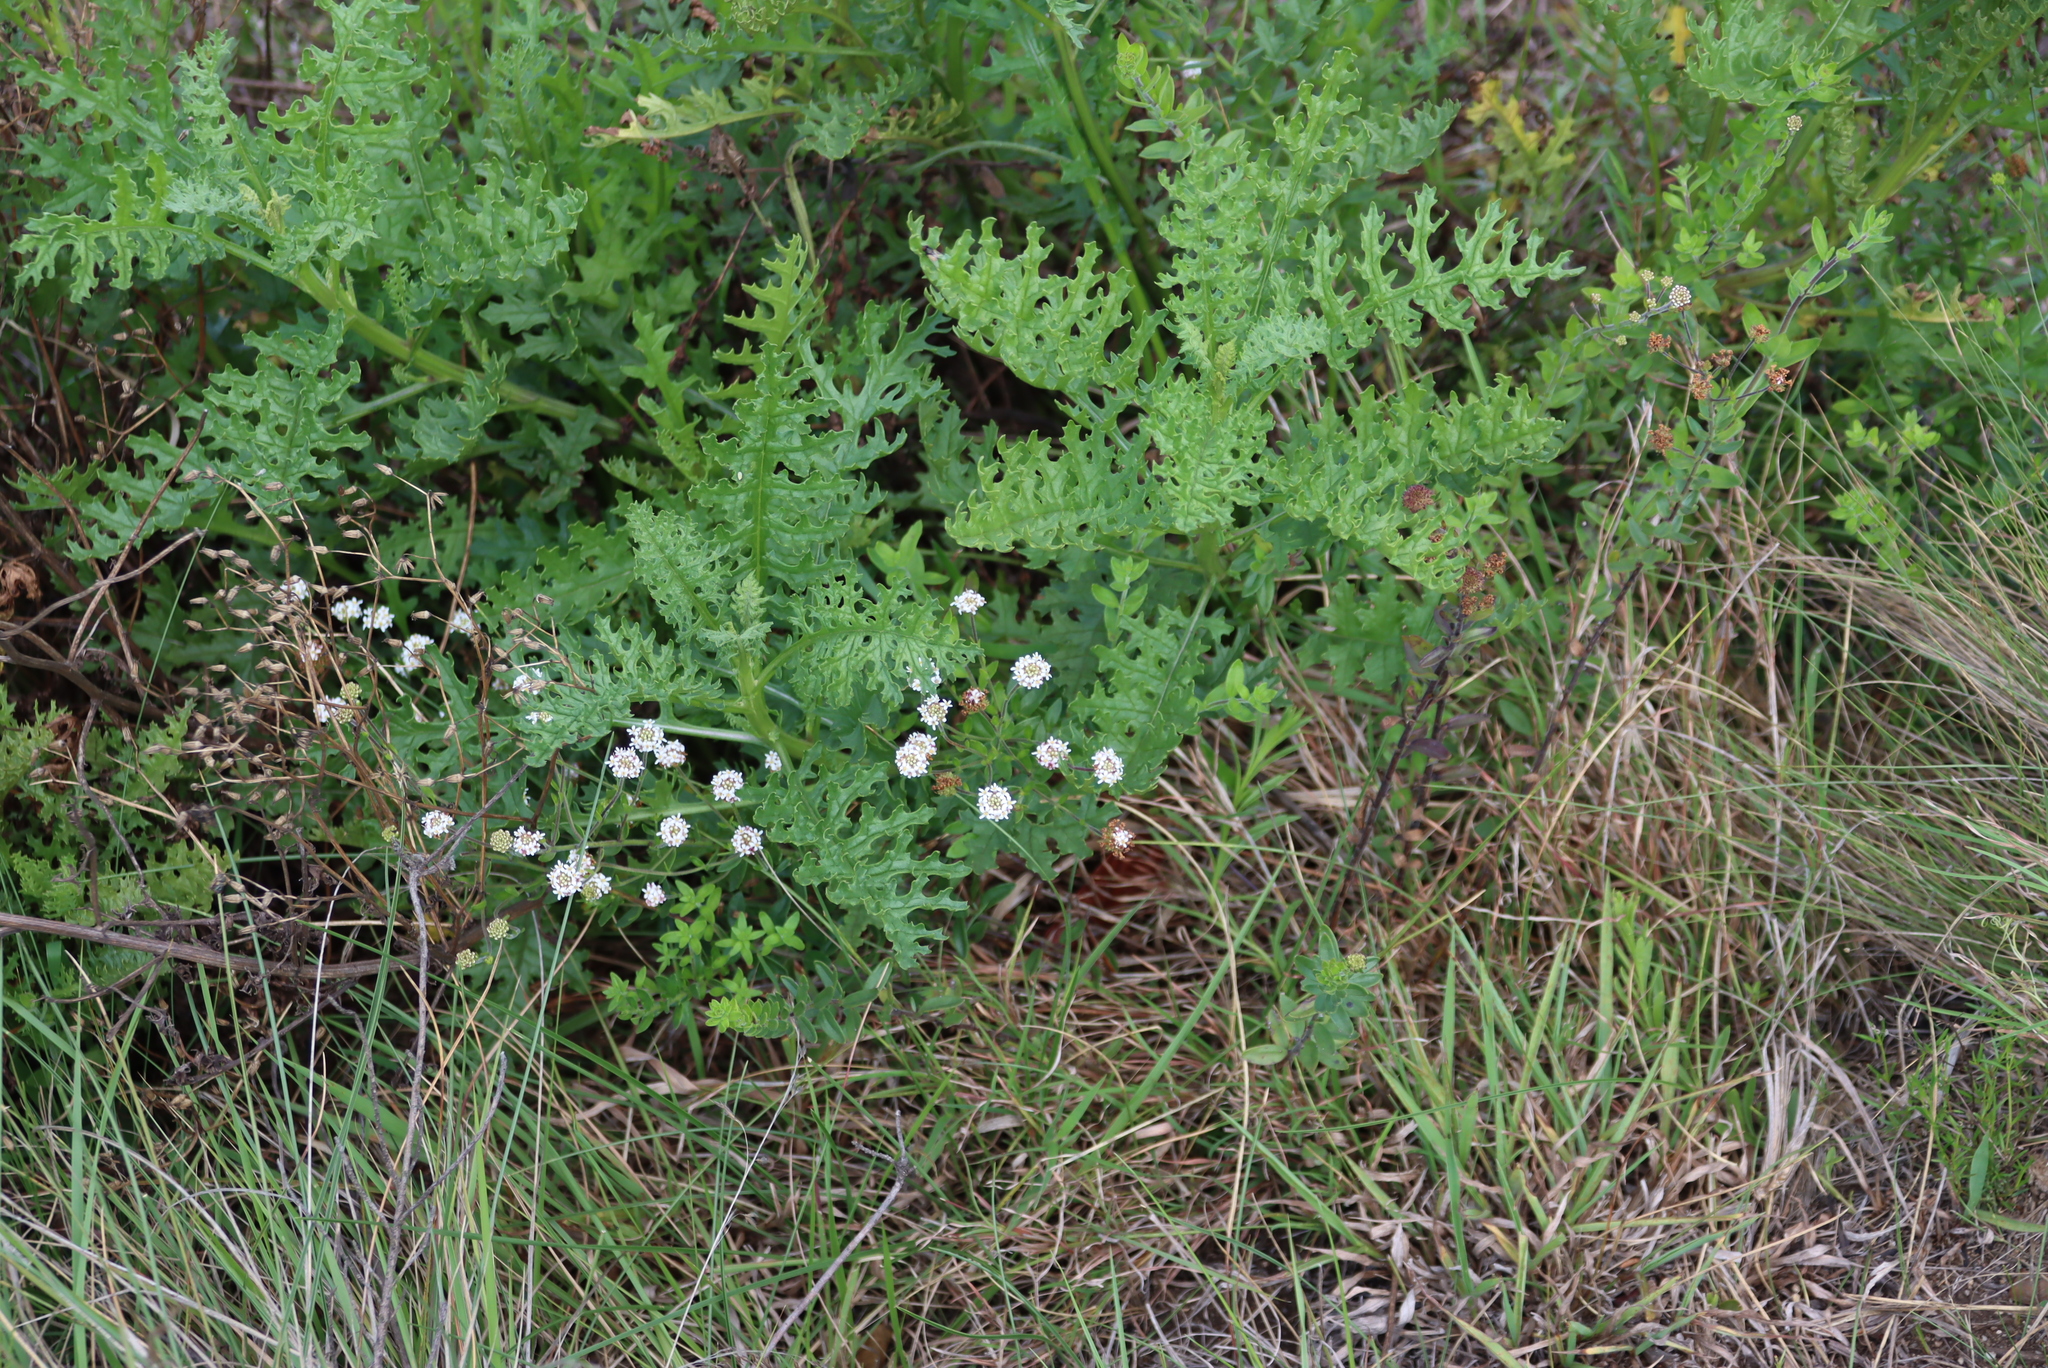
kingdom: Plantae
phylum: Tracheophyta
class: Magnoliopsida
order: Lamiales
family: Scrophulariaceae
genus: Selago
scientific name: Selago swaziensis
